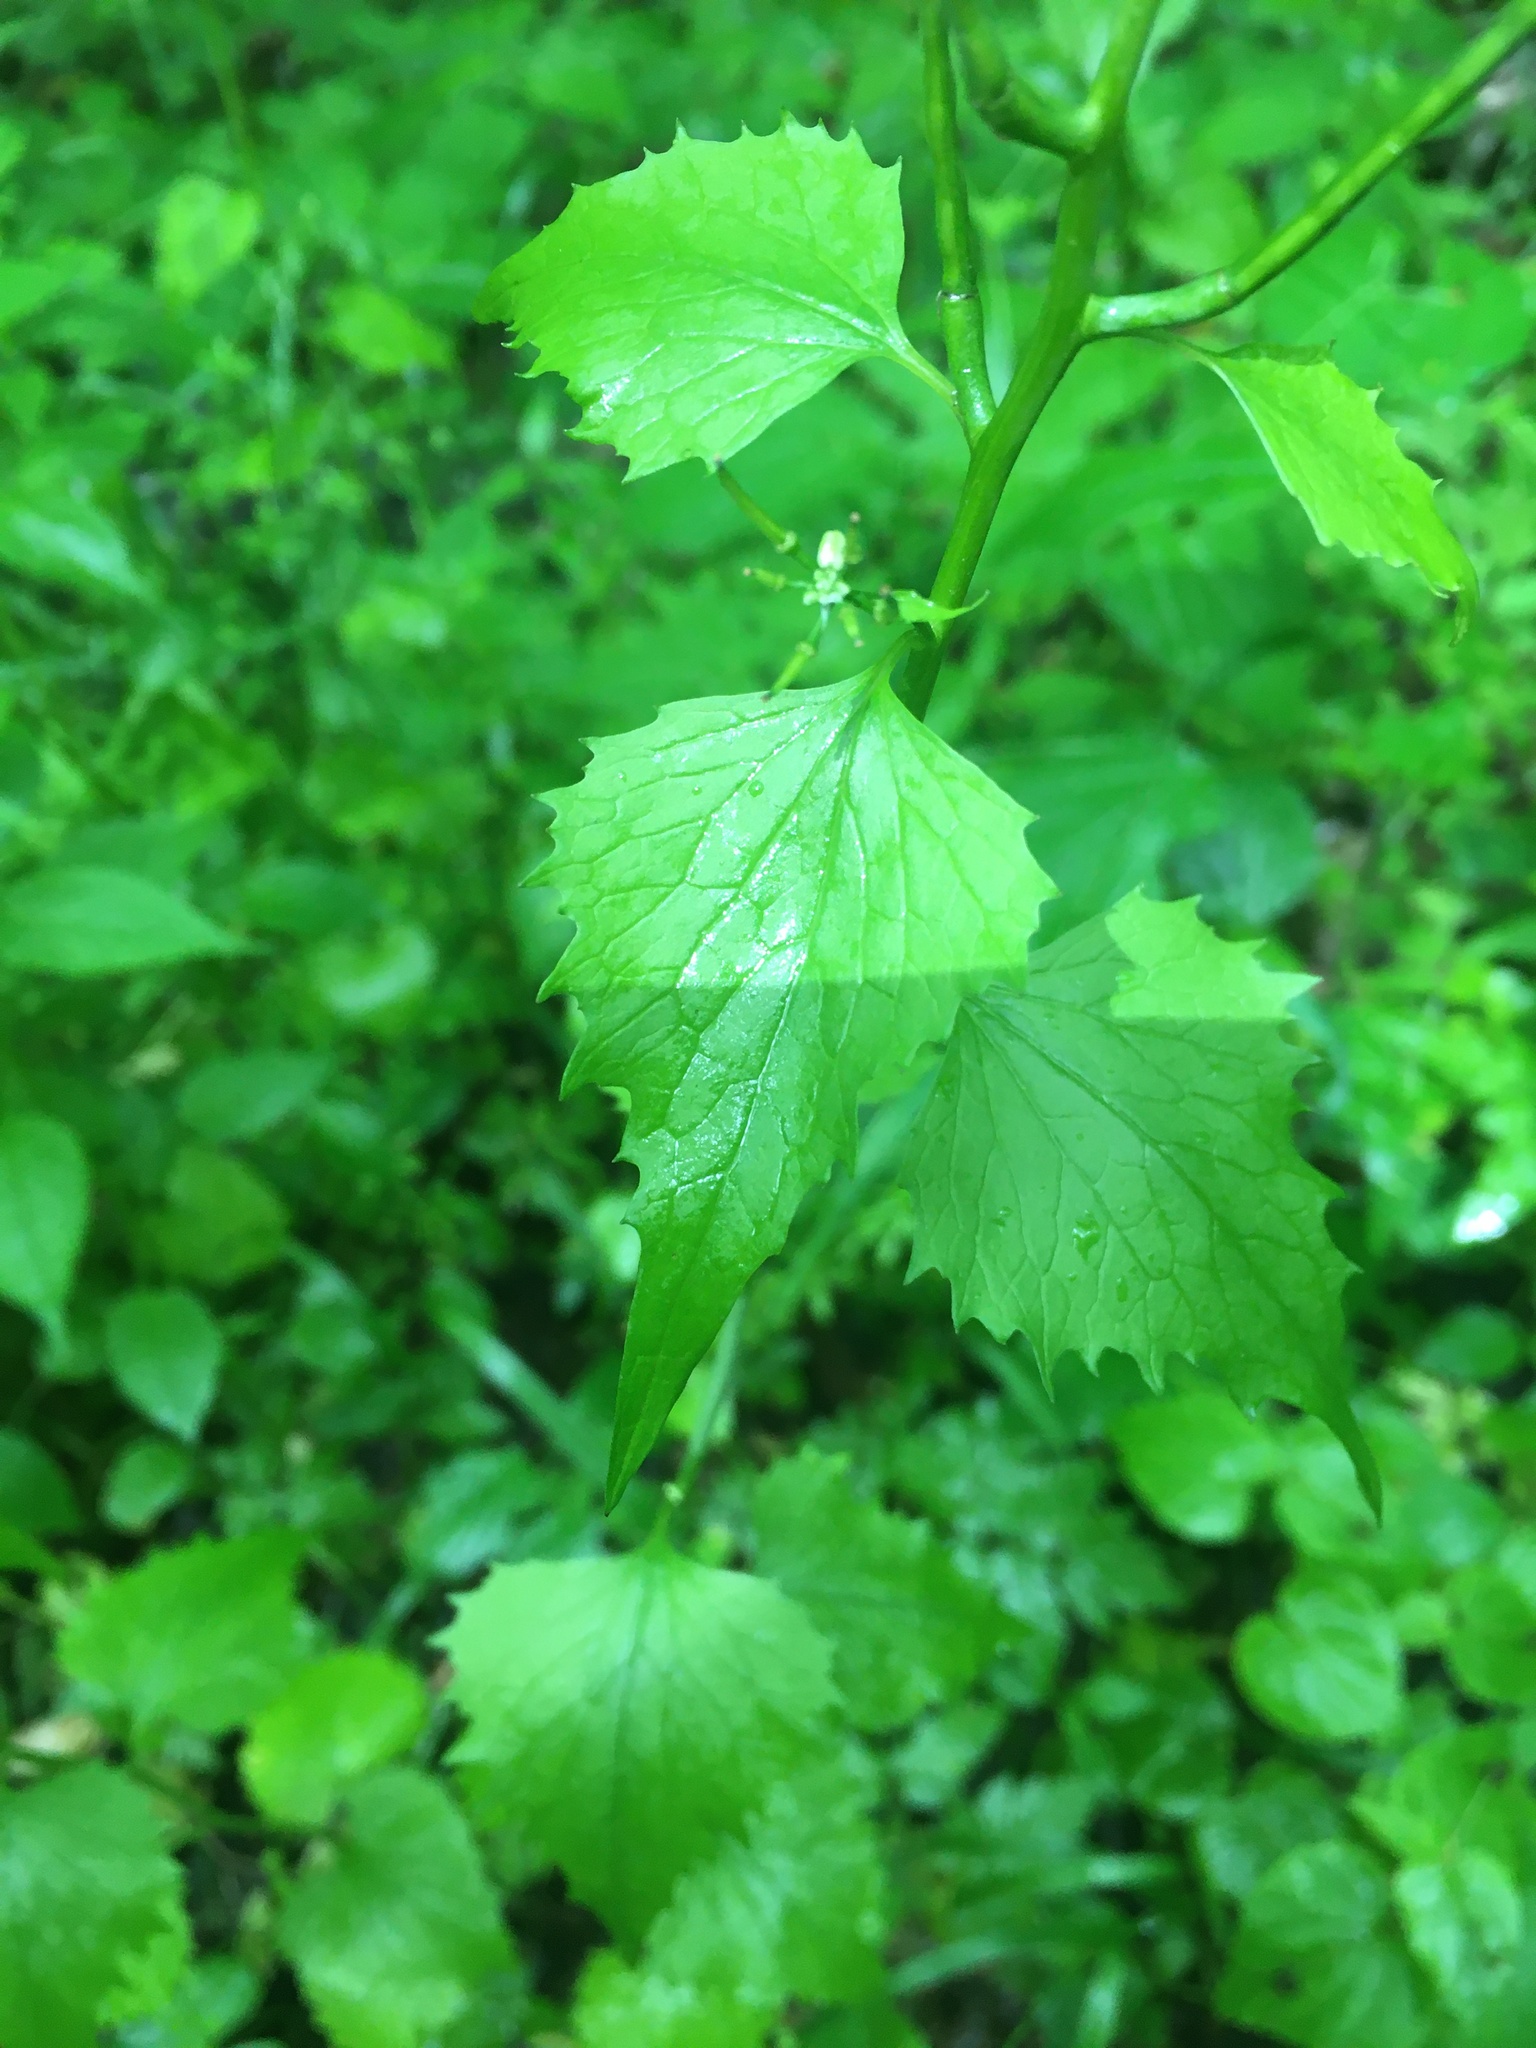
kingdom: Plantae
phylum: Tracheophyta
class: Magnoliopsida
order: Brassicales
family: Brassicaceae
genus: Alliaria
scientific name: Alliaria petiolata
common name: Garlic mustard
